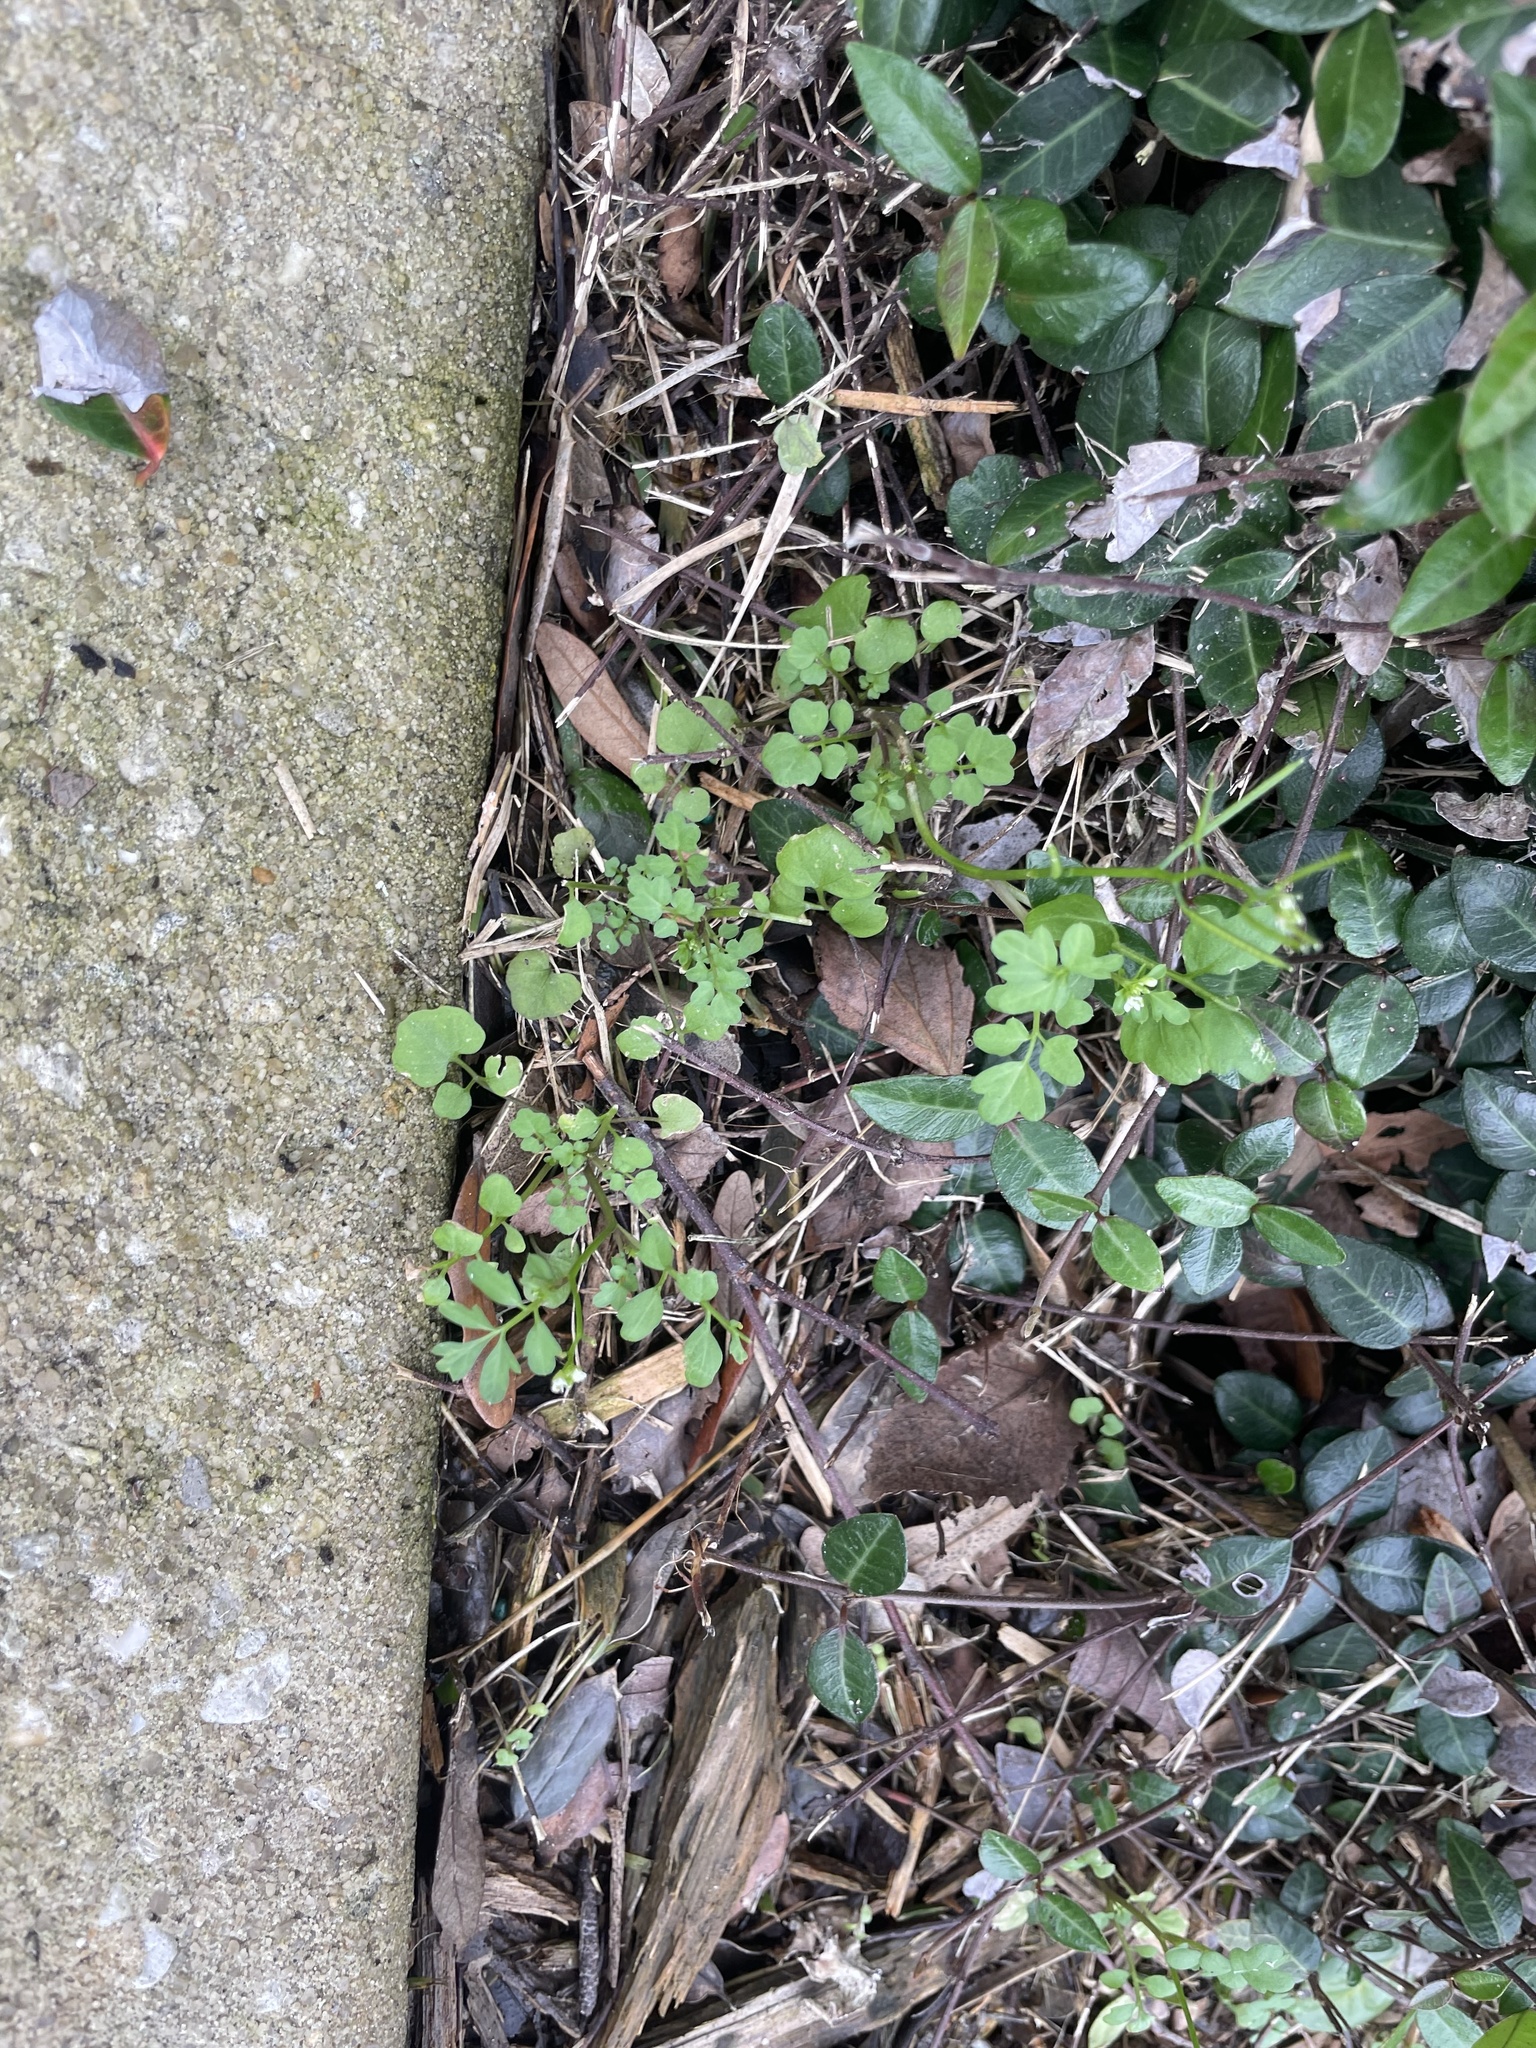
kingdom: Plantae
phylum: Tracheophyta
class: Magnoliopsida
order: Brassicales
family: Brassicaceae
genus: Cardamine
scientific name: Cardamine occulta
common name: Asian wavy bittercress
